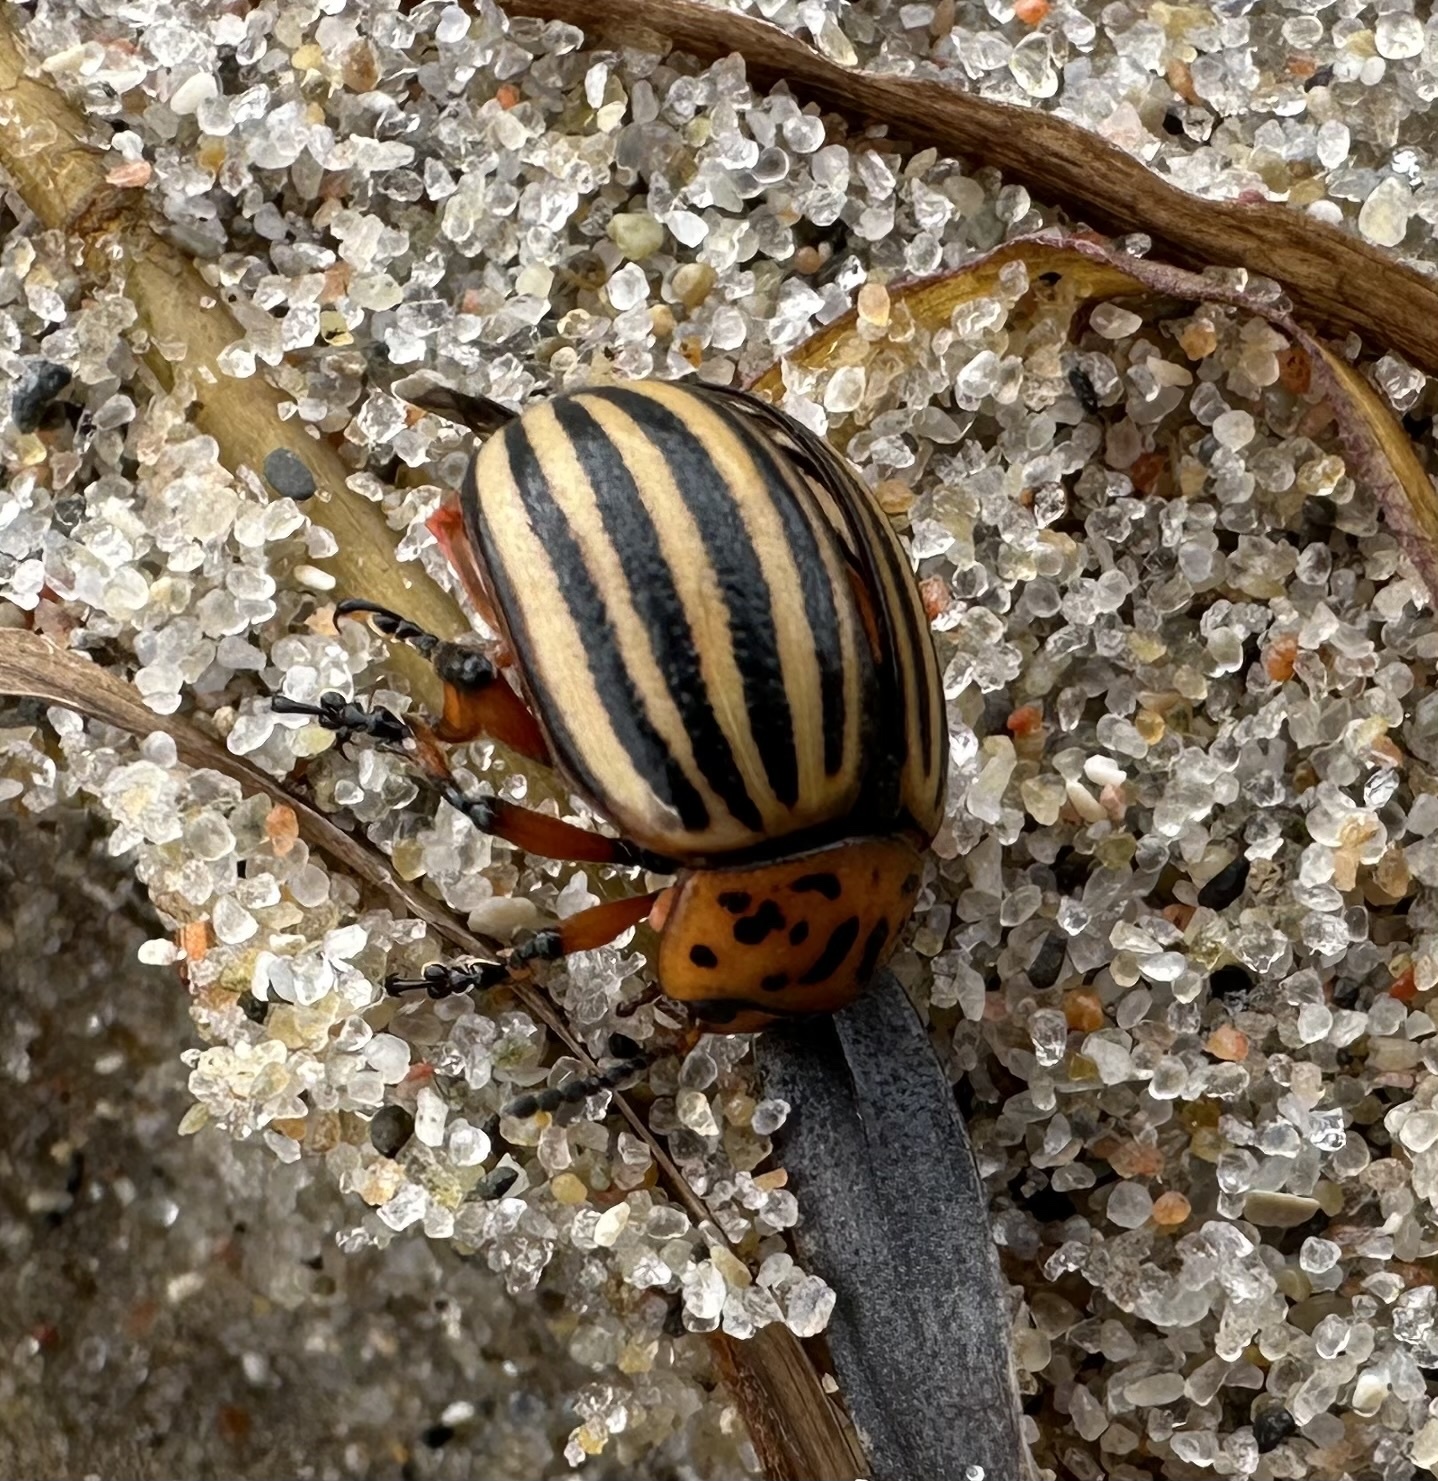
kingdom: Animalia
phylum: Arthropoda
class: Insecta
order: Coleoptera
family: Chrysomelidae
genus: Leptinotarsa
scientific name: Leptinotarsa decemlineata
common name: Colorado potato beetle
